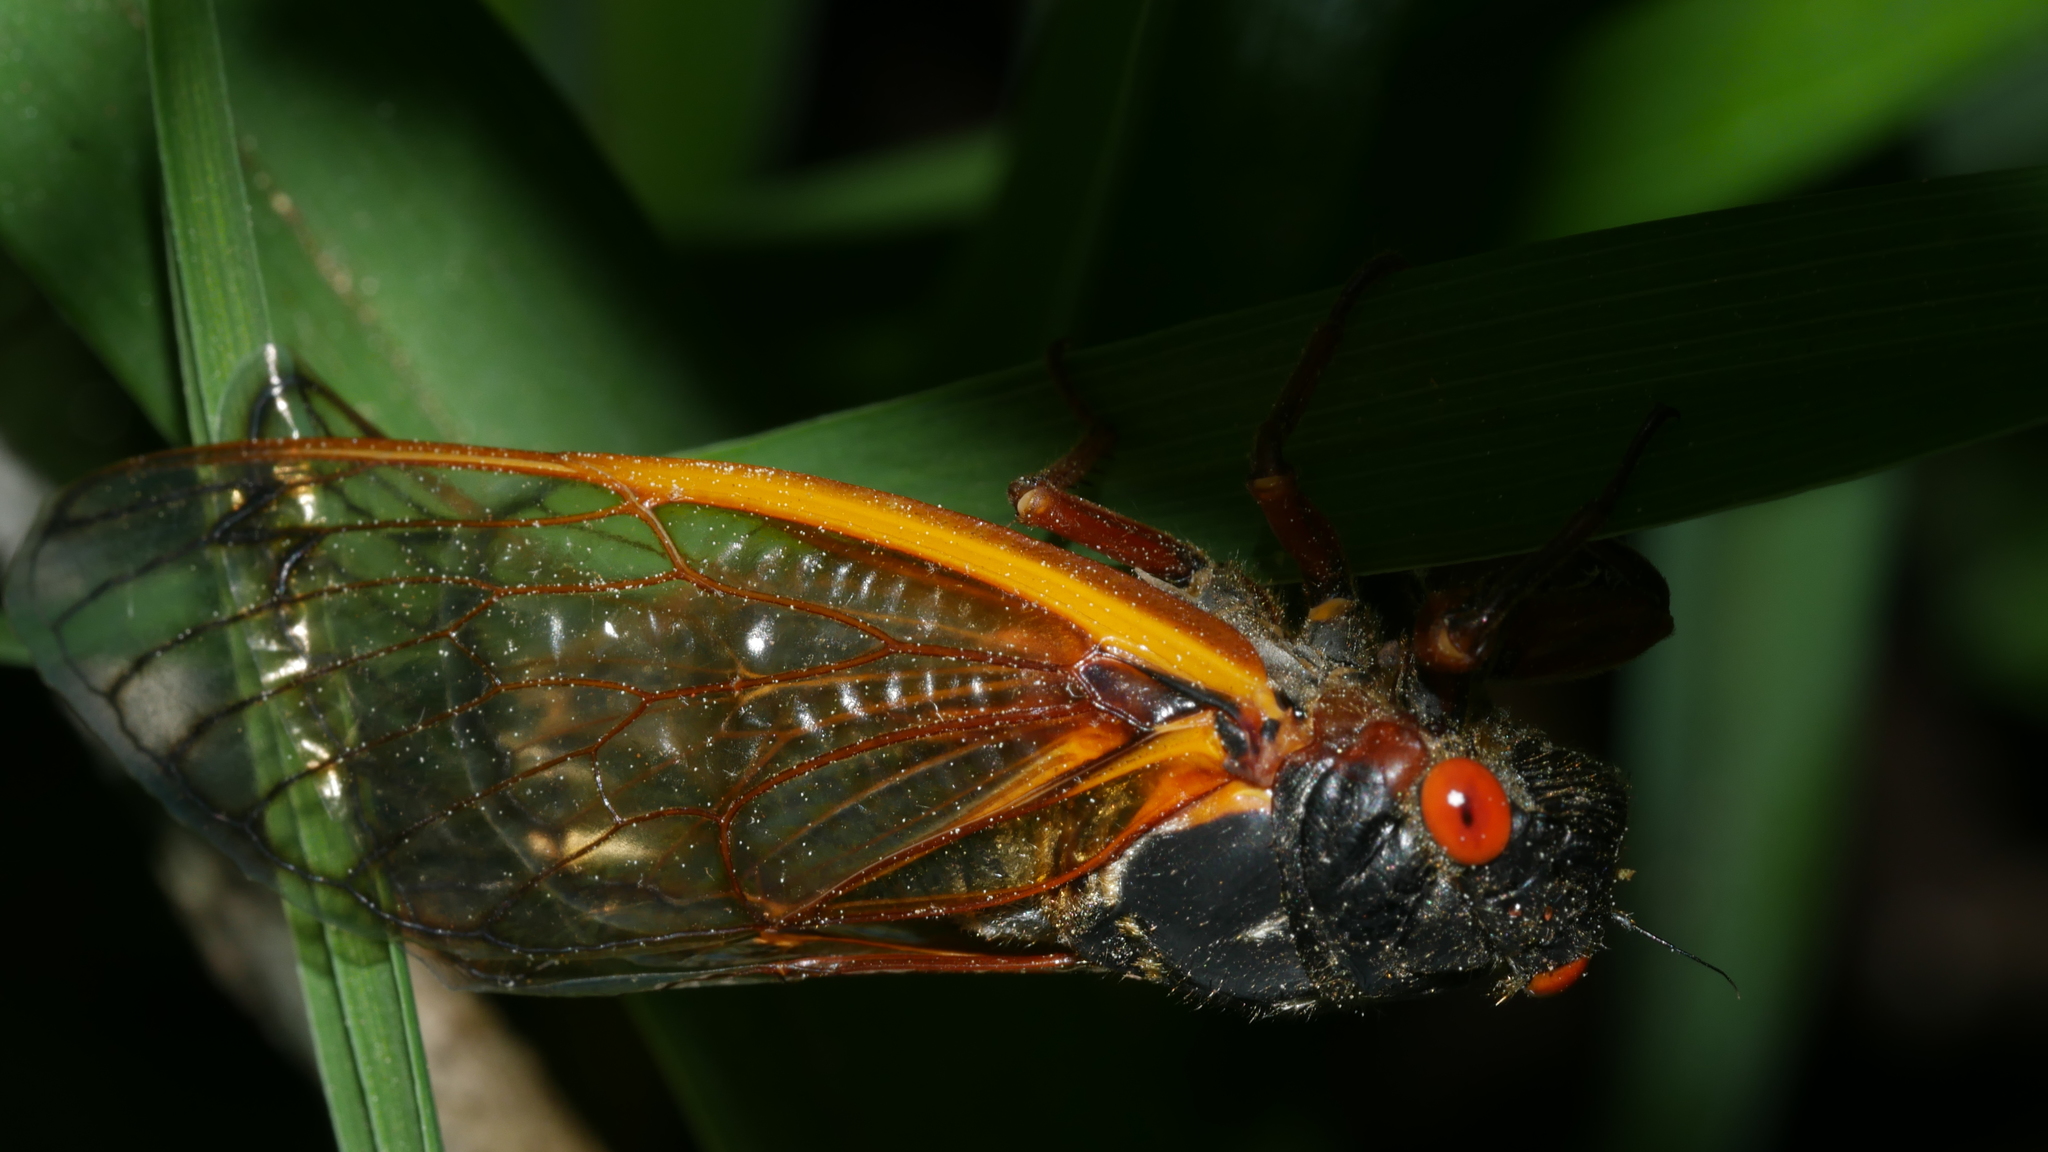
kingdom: Animalia
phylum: Arthropoda
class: Insecta
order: Hemiptera
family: Cicadidae
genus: Magicicada
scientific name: Magicicada septendecim
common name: Periodical cicada
